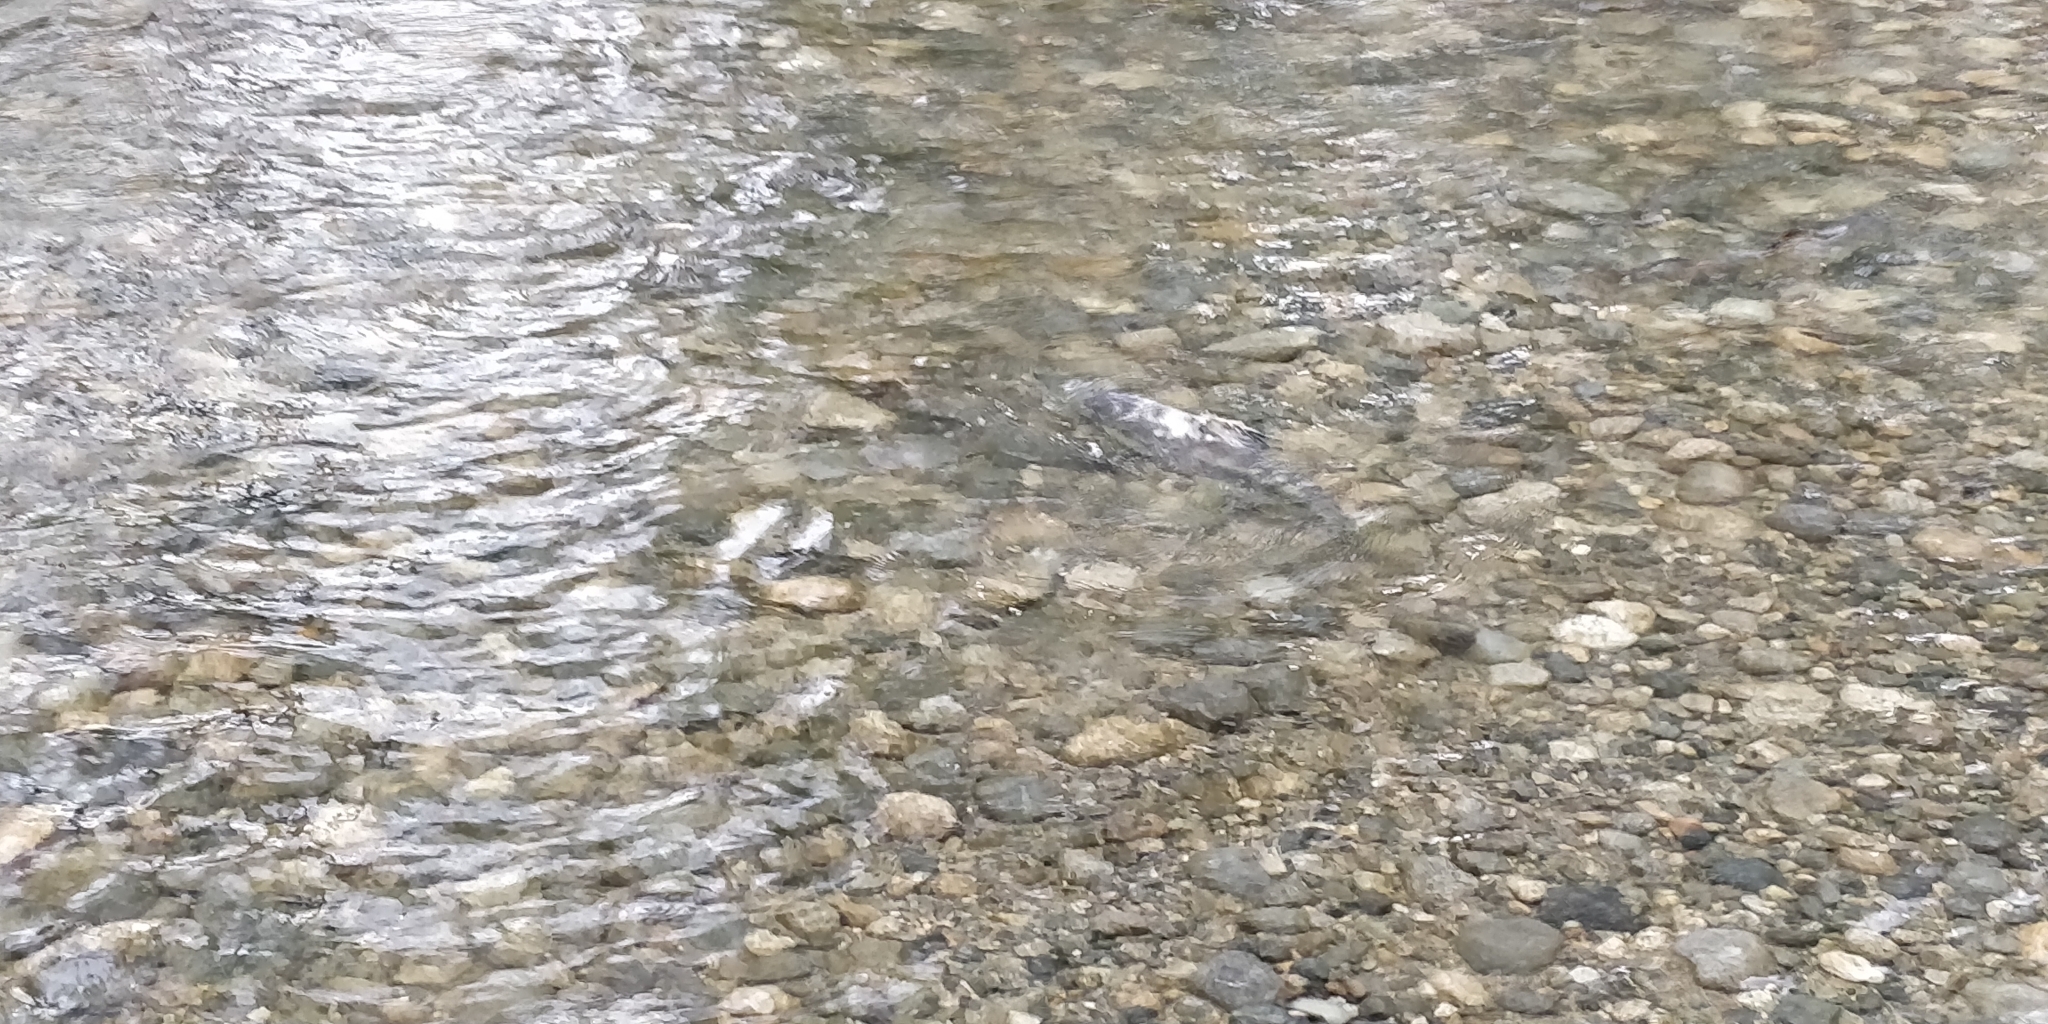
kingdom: Animalia
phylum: Chordata
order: Salmoniformes
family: Salmonidae
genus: Oncorhynchus
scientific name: Oncorhynchus keta
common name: Chum salmon
